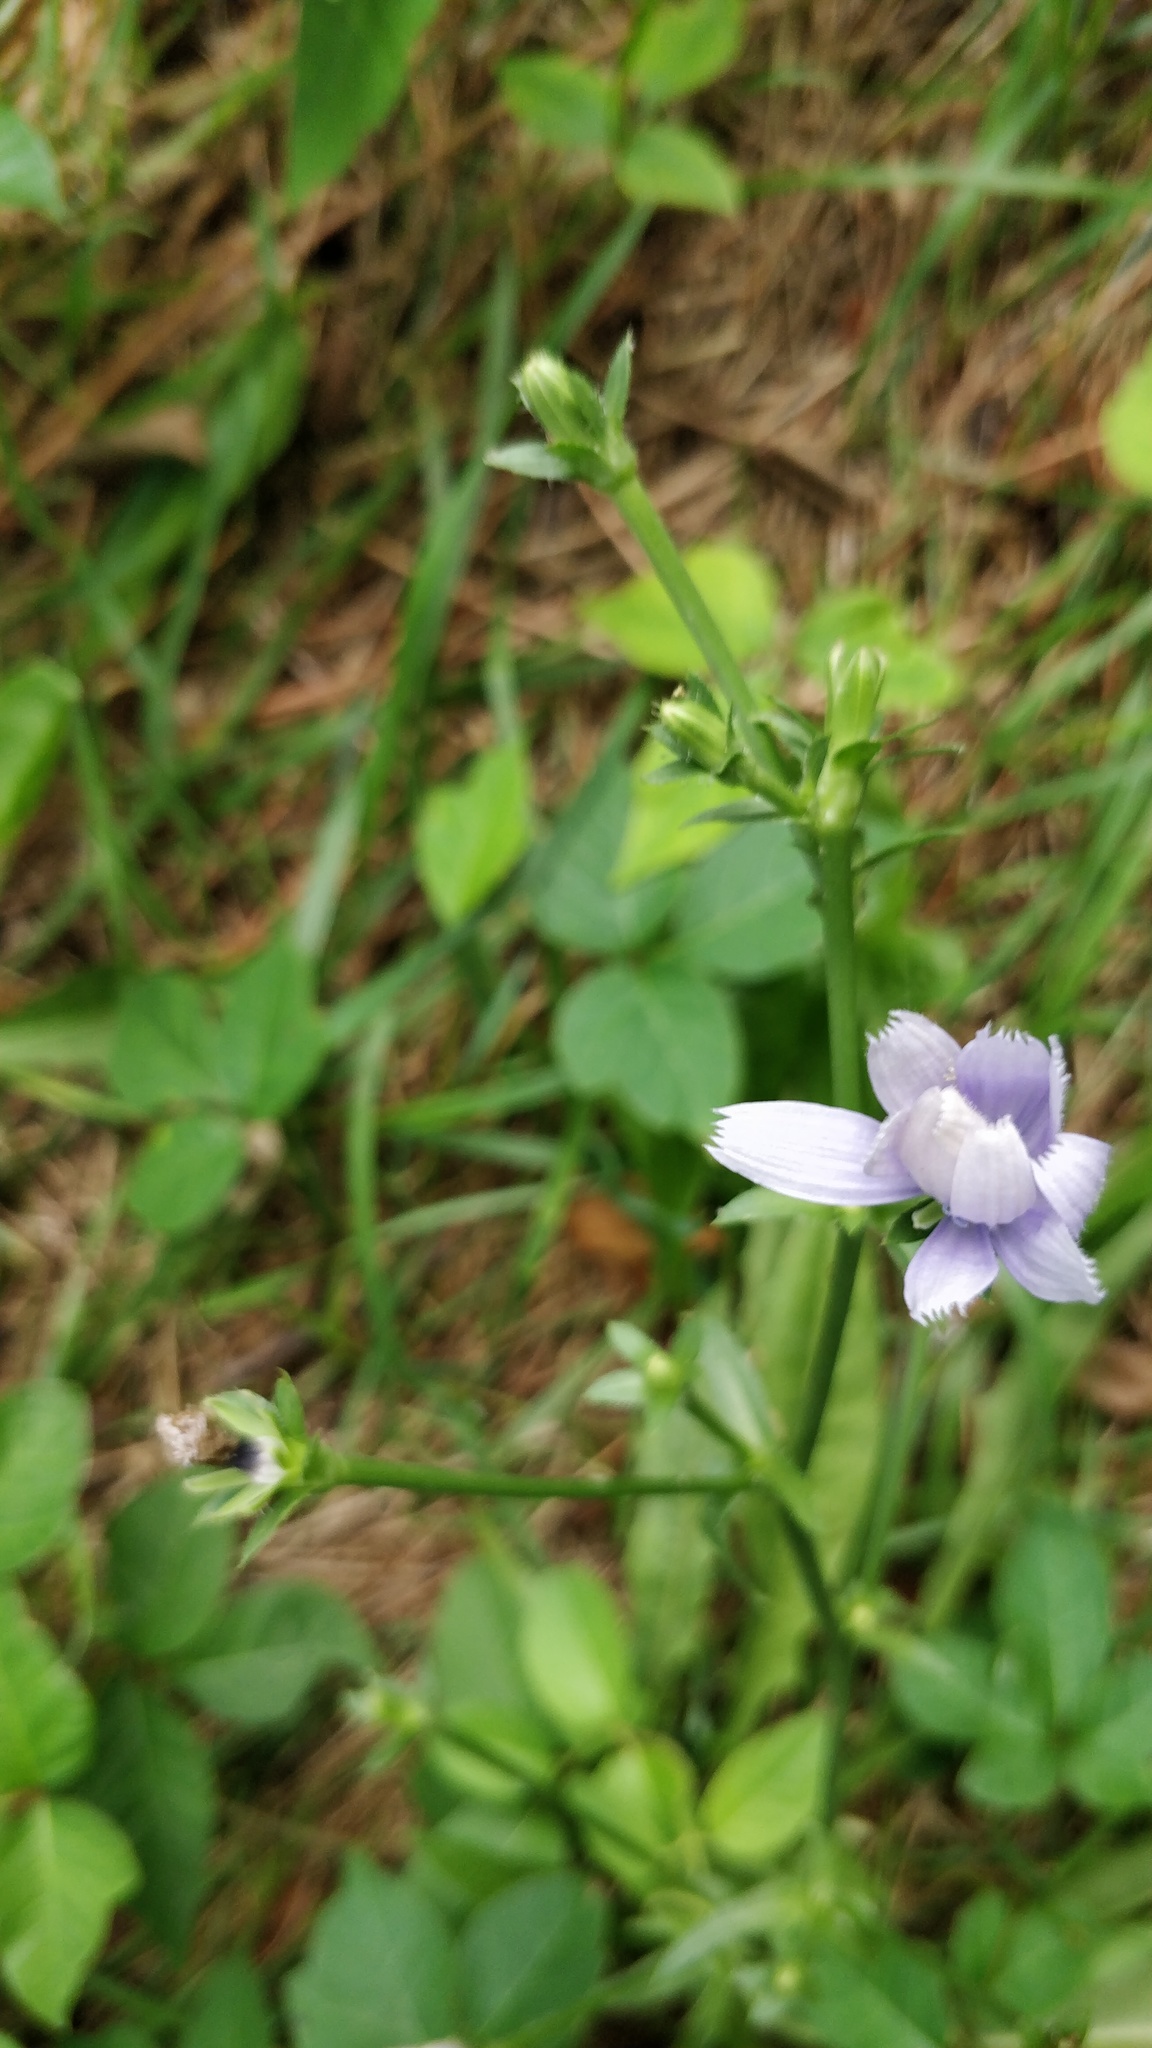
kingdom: Plantae
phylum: Tracheophyta
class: Magnoliopsida
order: Asterales
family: Asteraceae
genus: Cichorium
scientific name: Cichorium intybus
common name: Chicory
